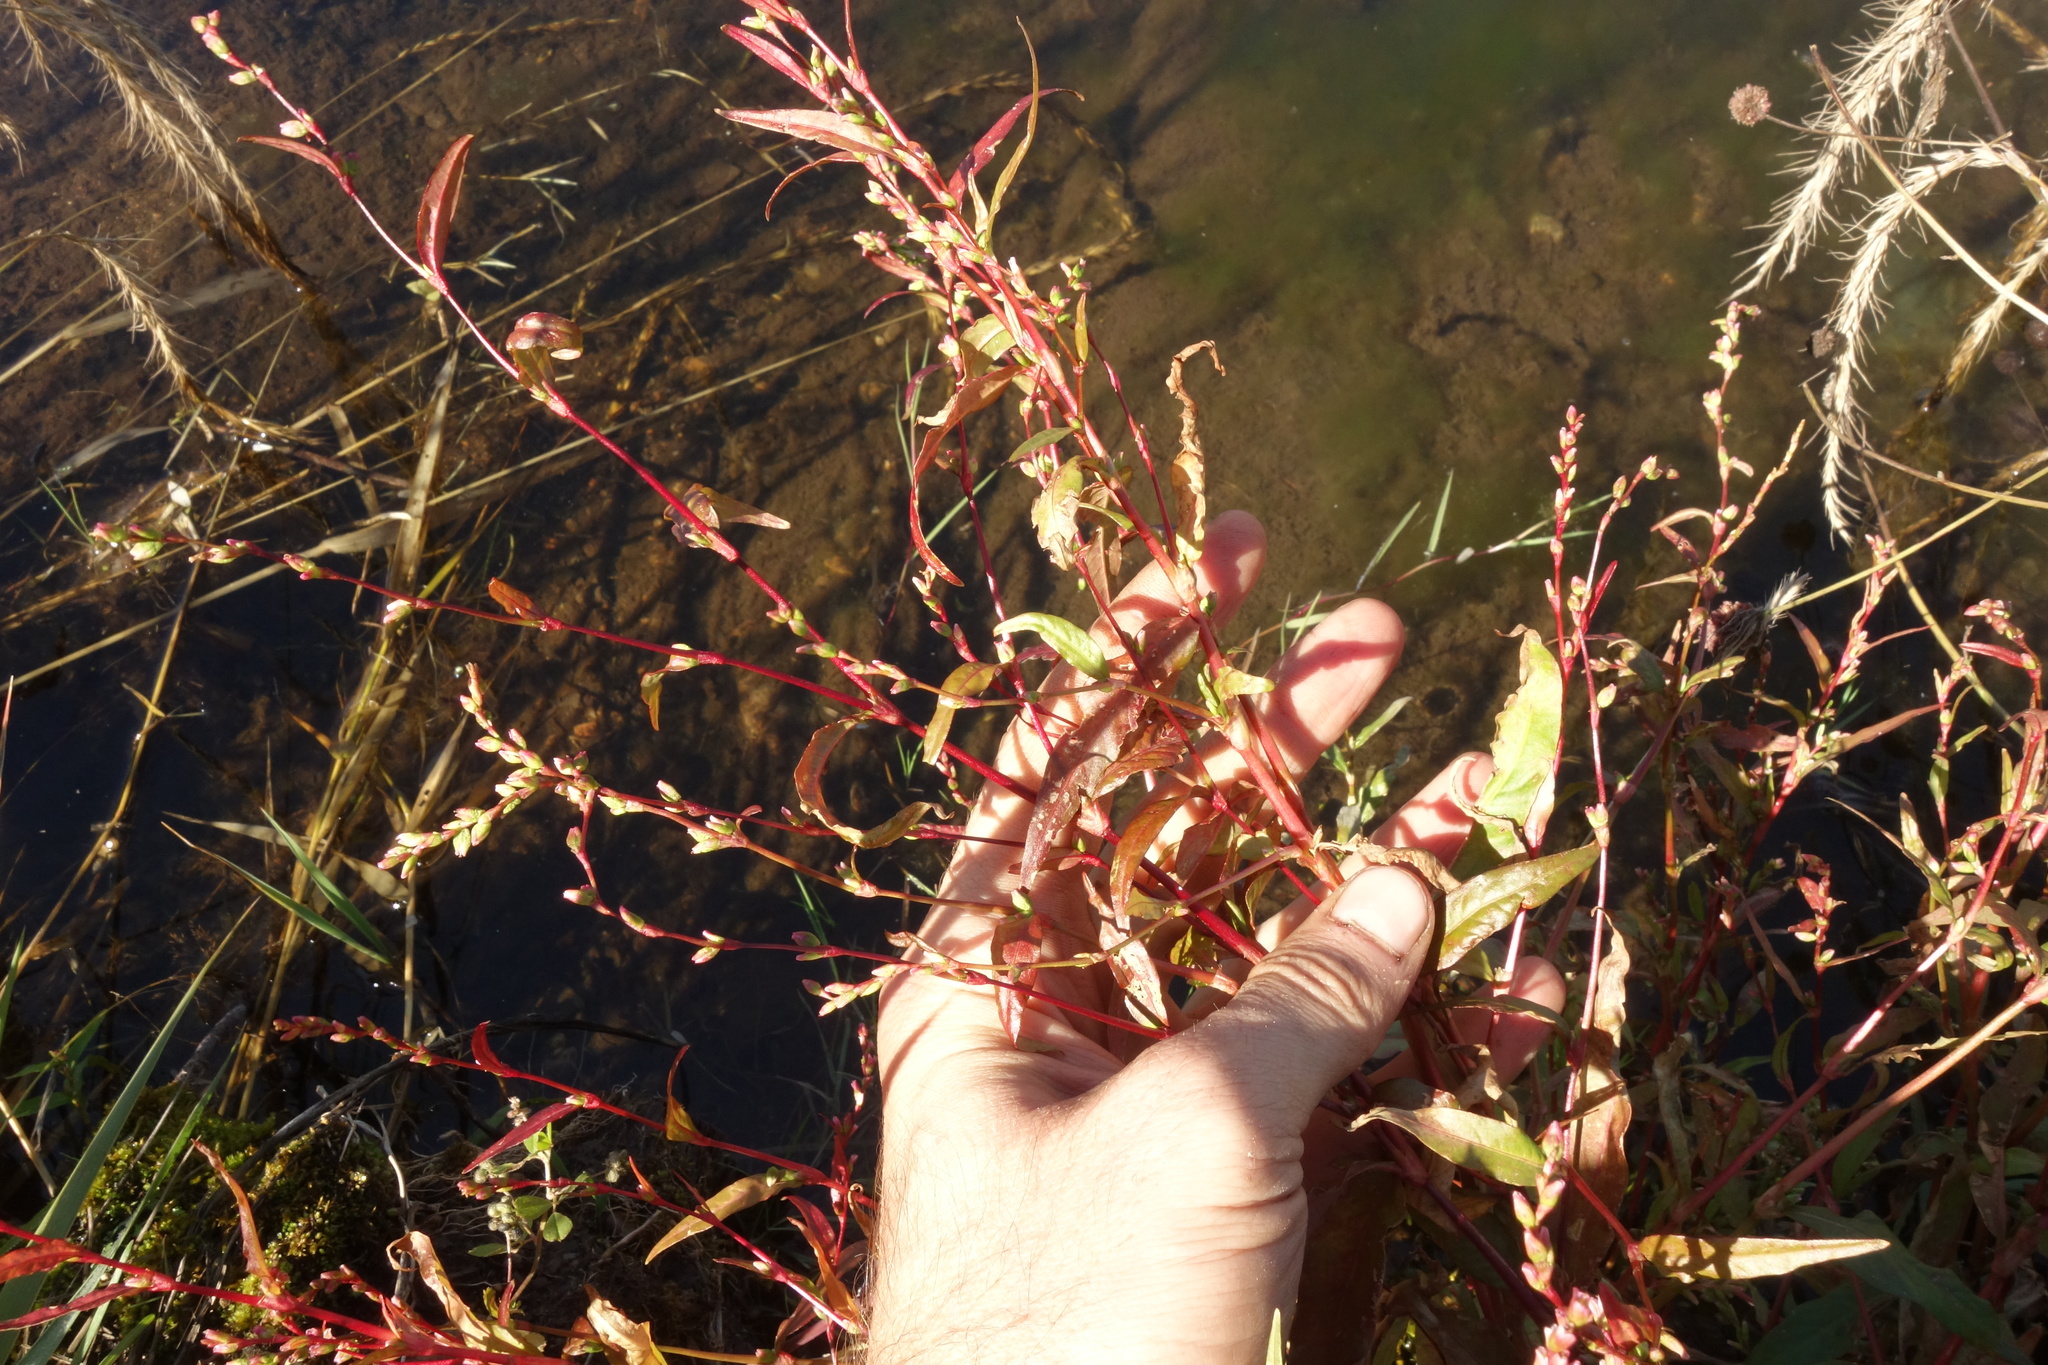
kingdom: Plantae
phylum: Tracheophyta
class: Magnoliopsida
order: Caryophyllales
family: Polygonaceae
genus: Persicaria
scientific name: Persicaria hydropiper
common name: Water-pepper
